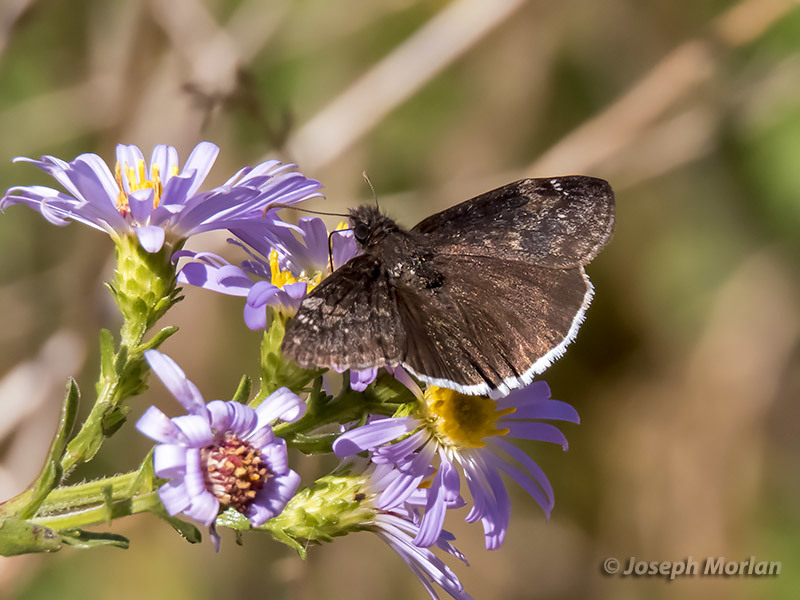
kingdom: Animalia
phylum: Arthropoda
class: Insecta
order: Lepidoptera
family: Hesperiidae
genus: Erynnis
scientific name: Erynnis tristis
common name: Mournful duskywing
